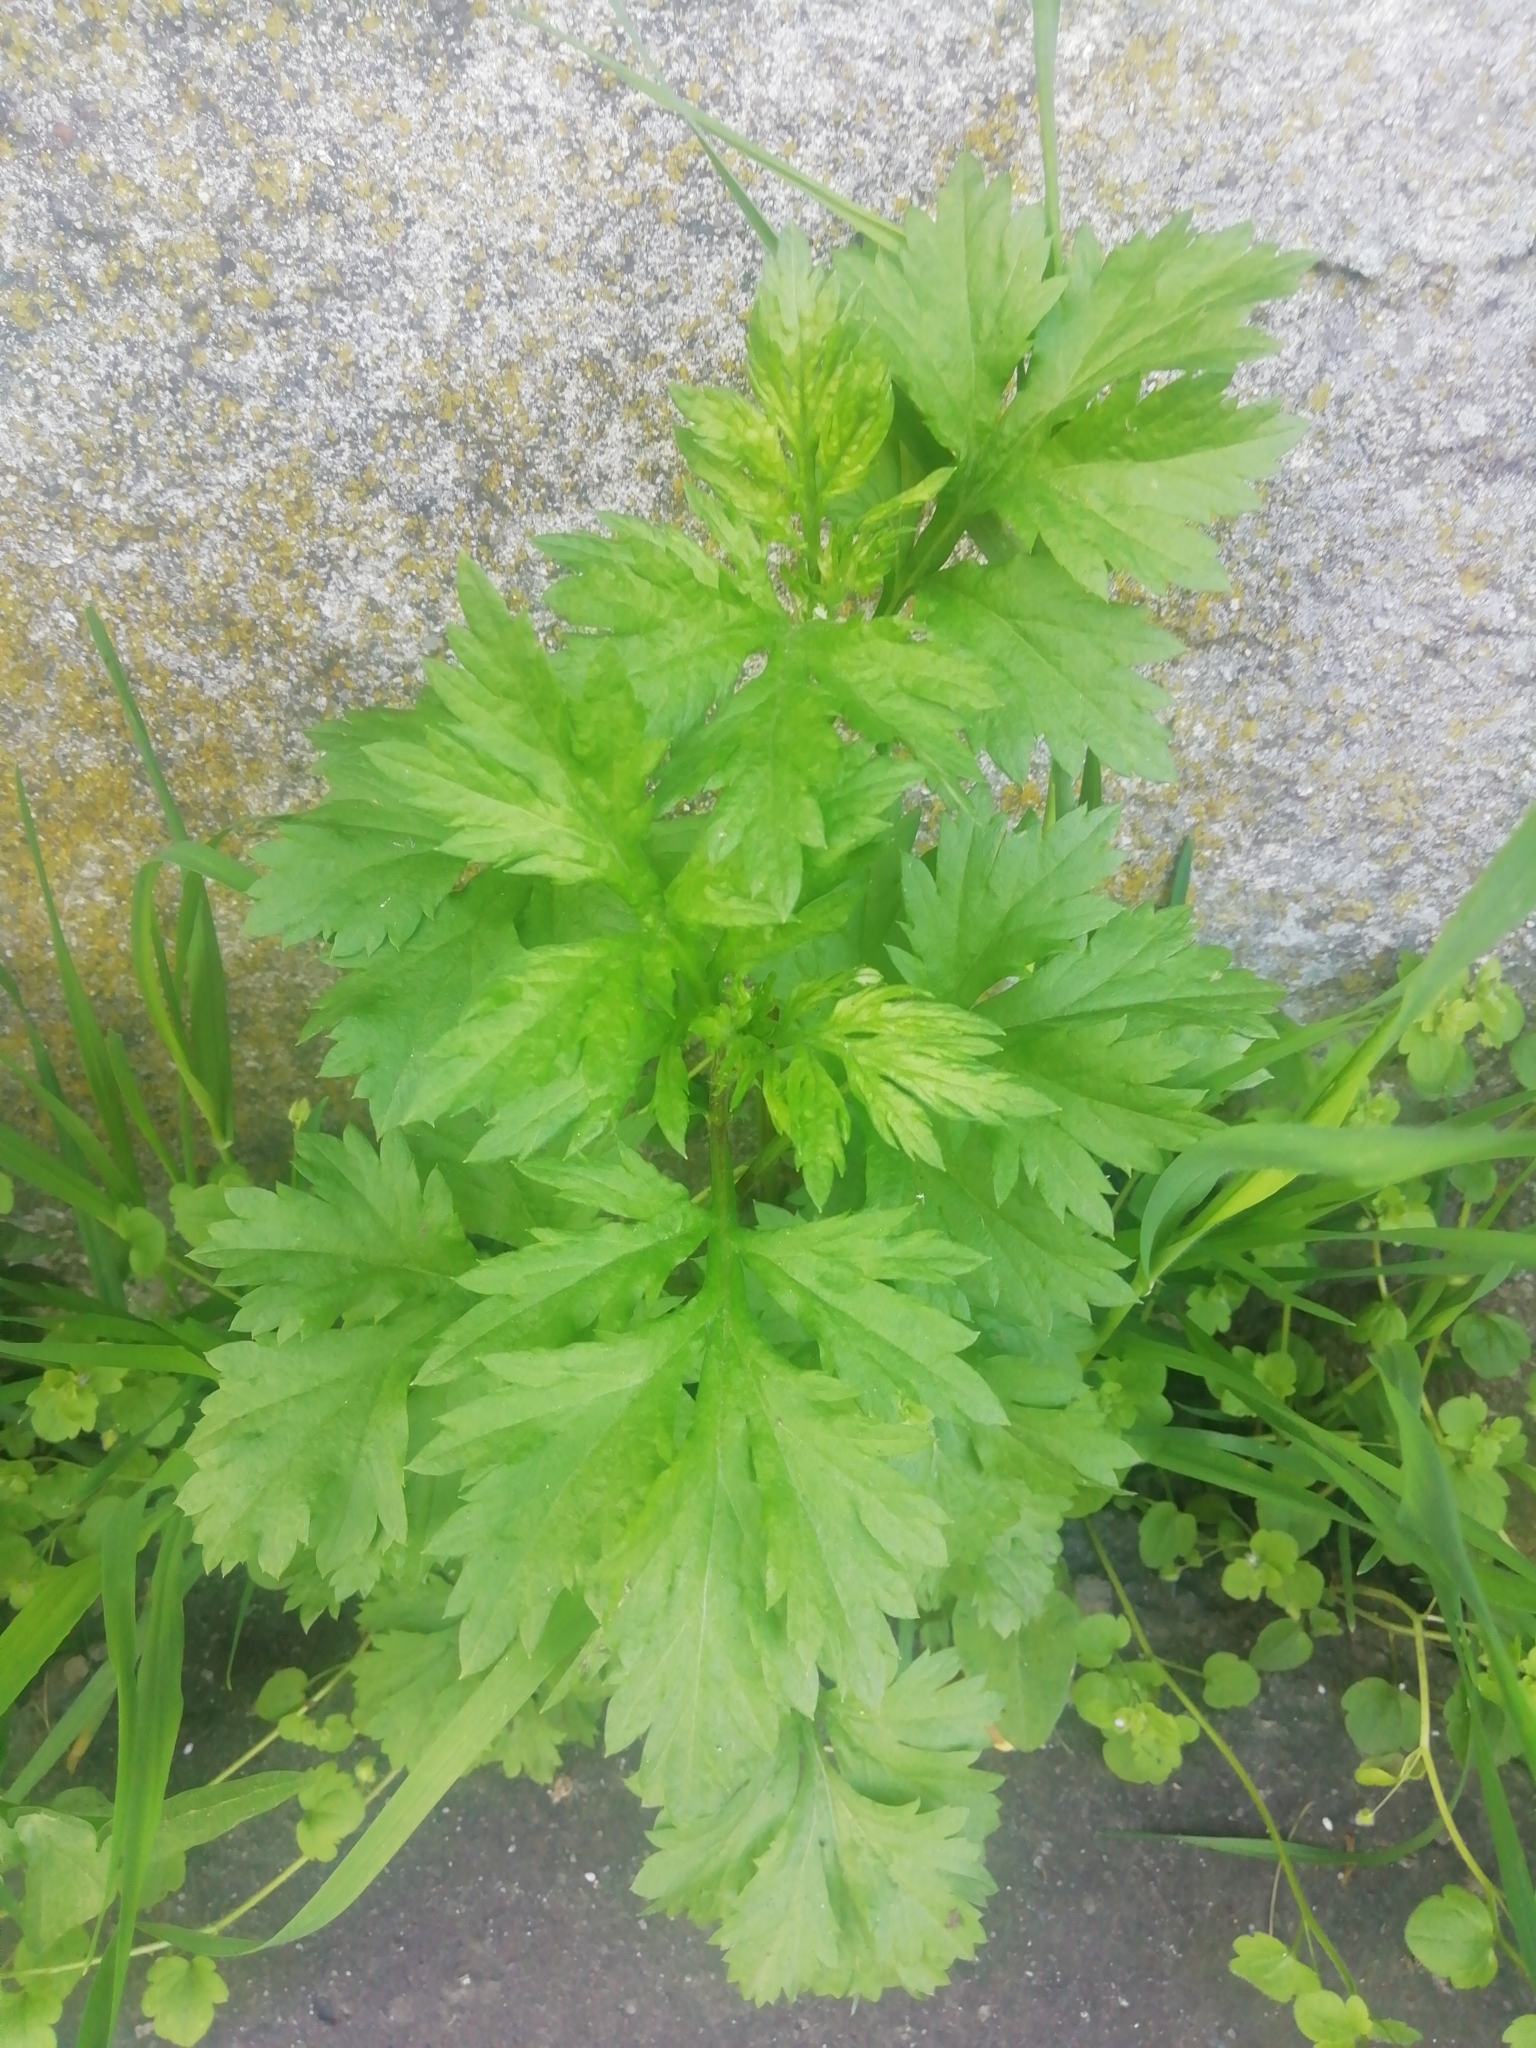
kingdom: Plantae
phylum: Tracheophyta
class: Magnoliopsida
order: Asterales
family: Asteraceae
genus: Artemisia
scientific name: Artemisia vulgaris
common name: Mugwort
